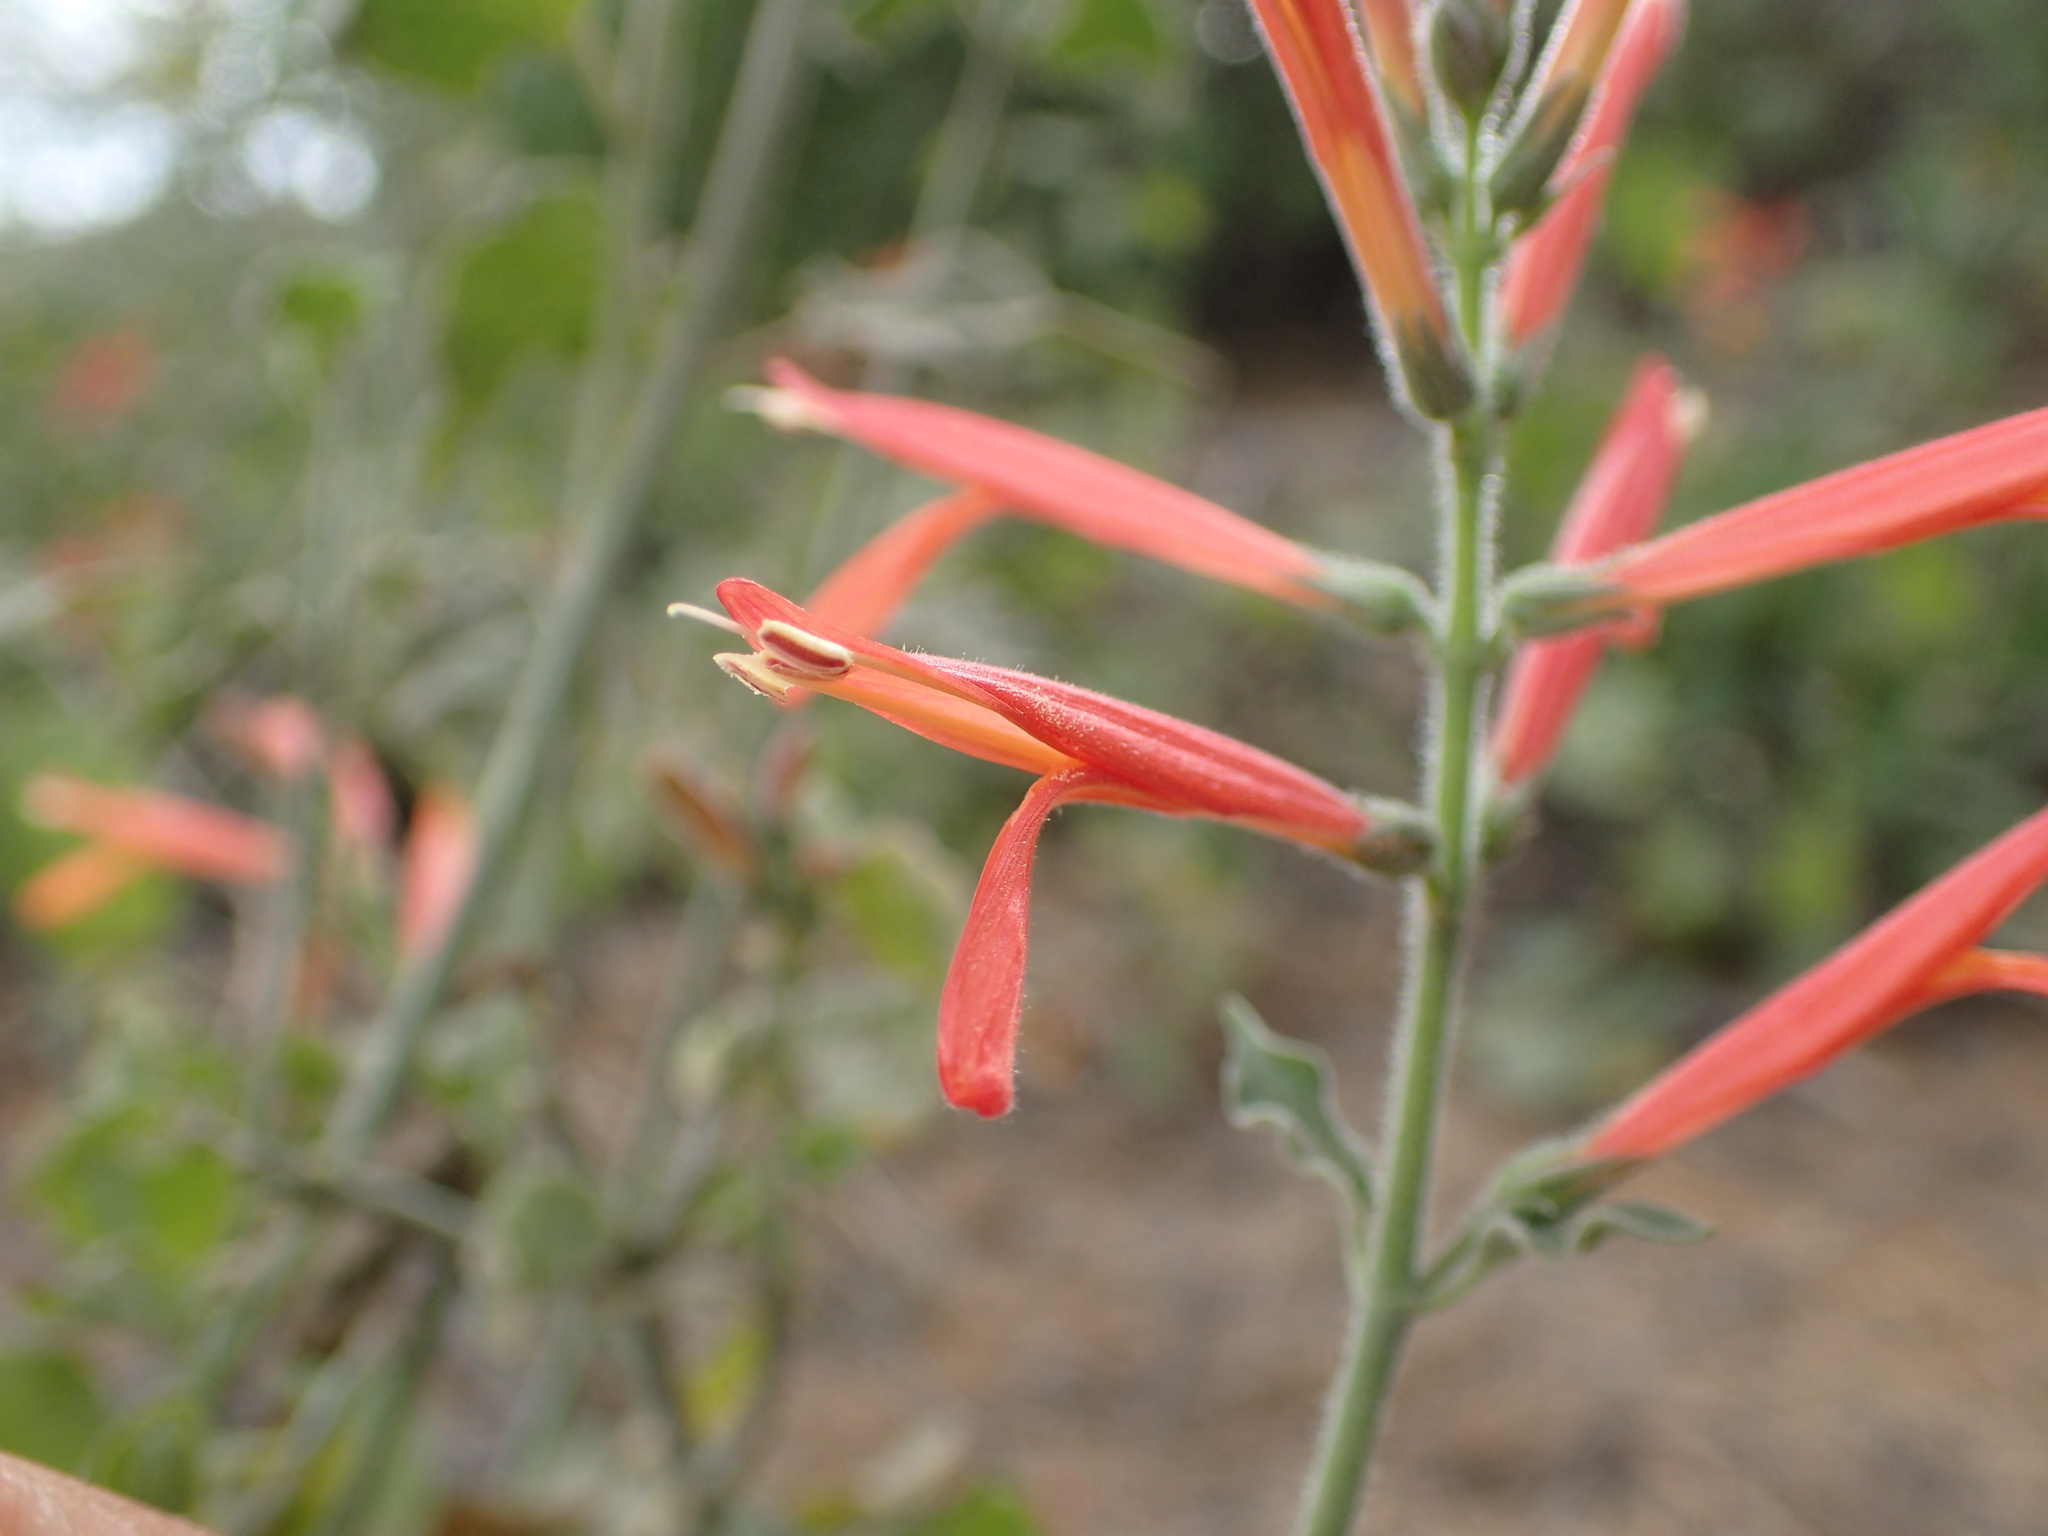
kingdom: Plantae
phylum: Tracheophyta
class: Magnoliopsida
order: Lamiales
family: Acanthaceae
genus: Justicia
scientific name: Justicia californica
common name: Chuparosa-honeysuckle
